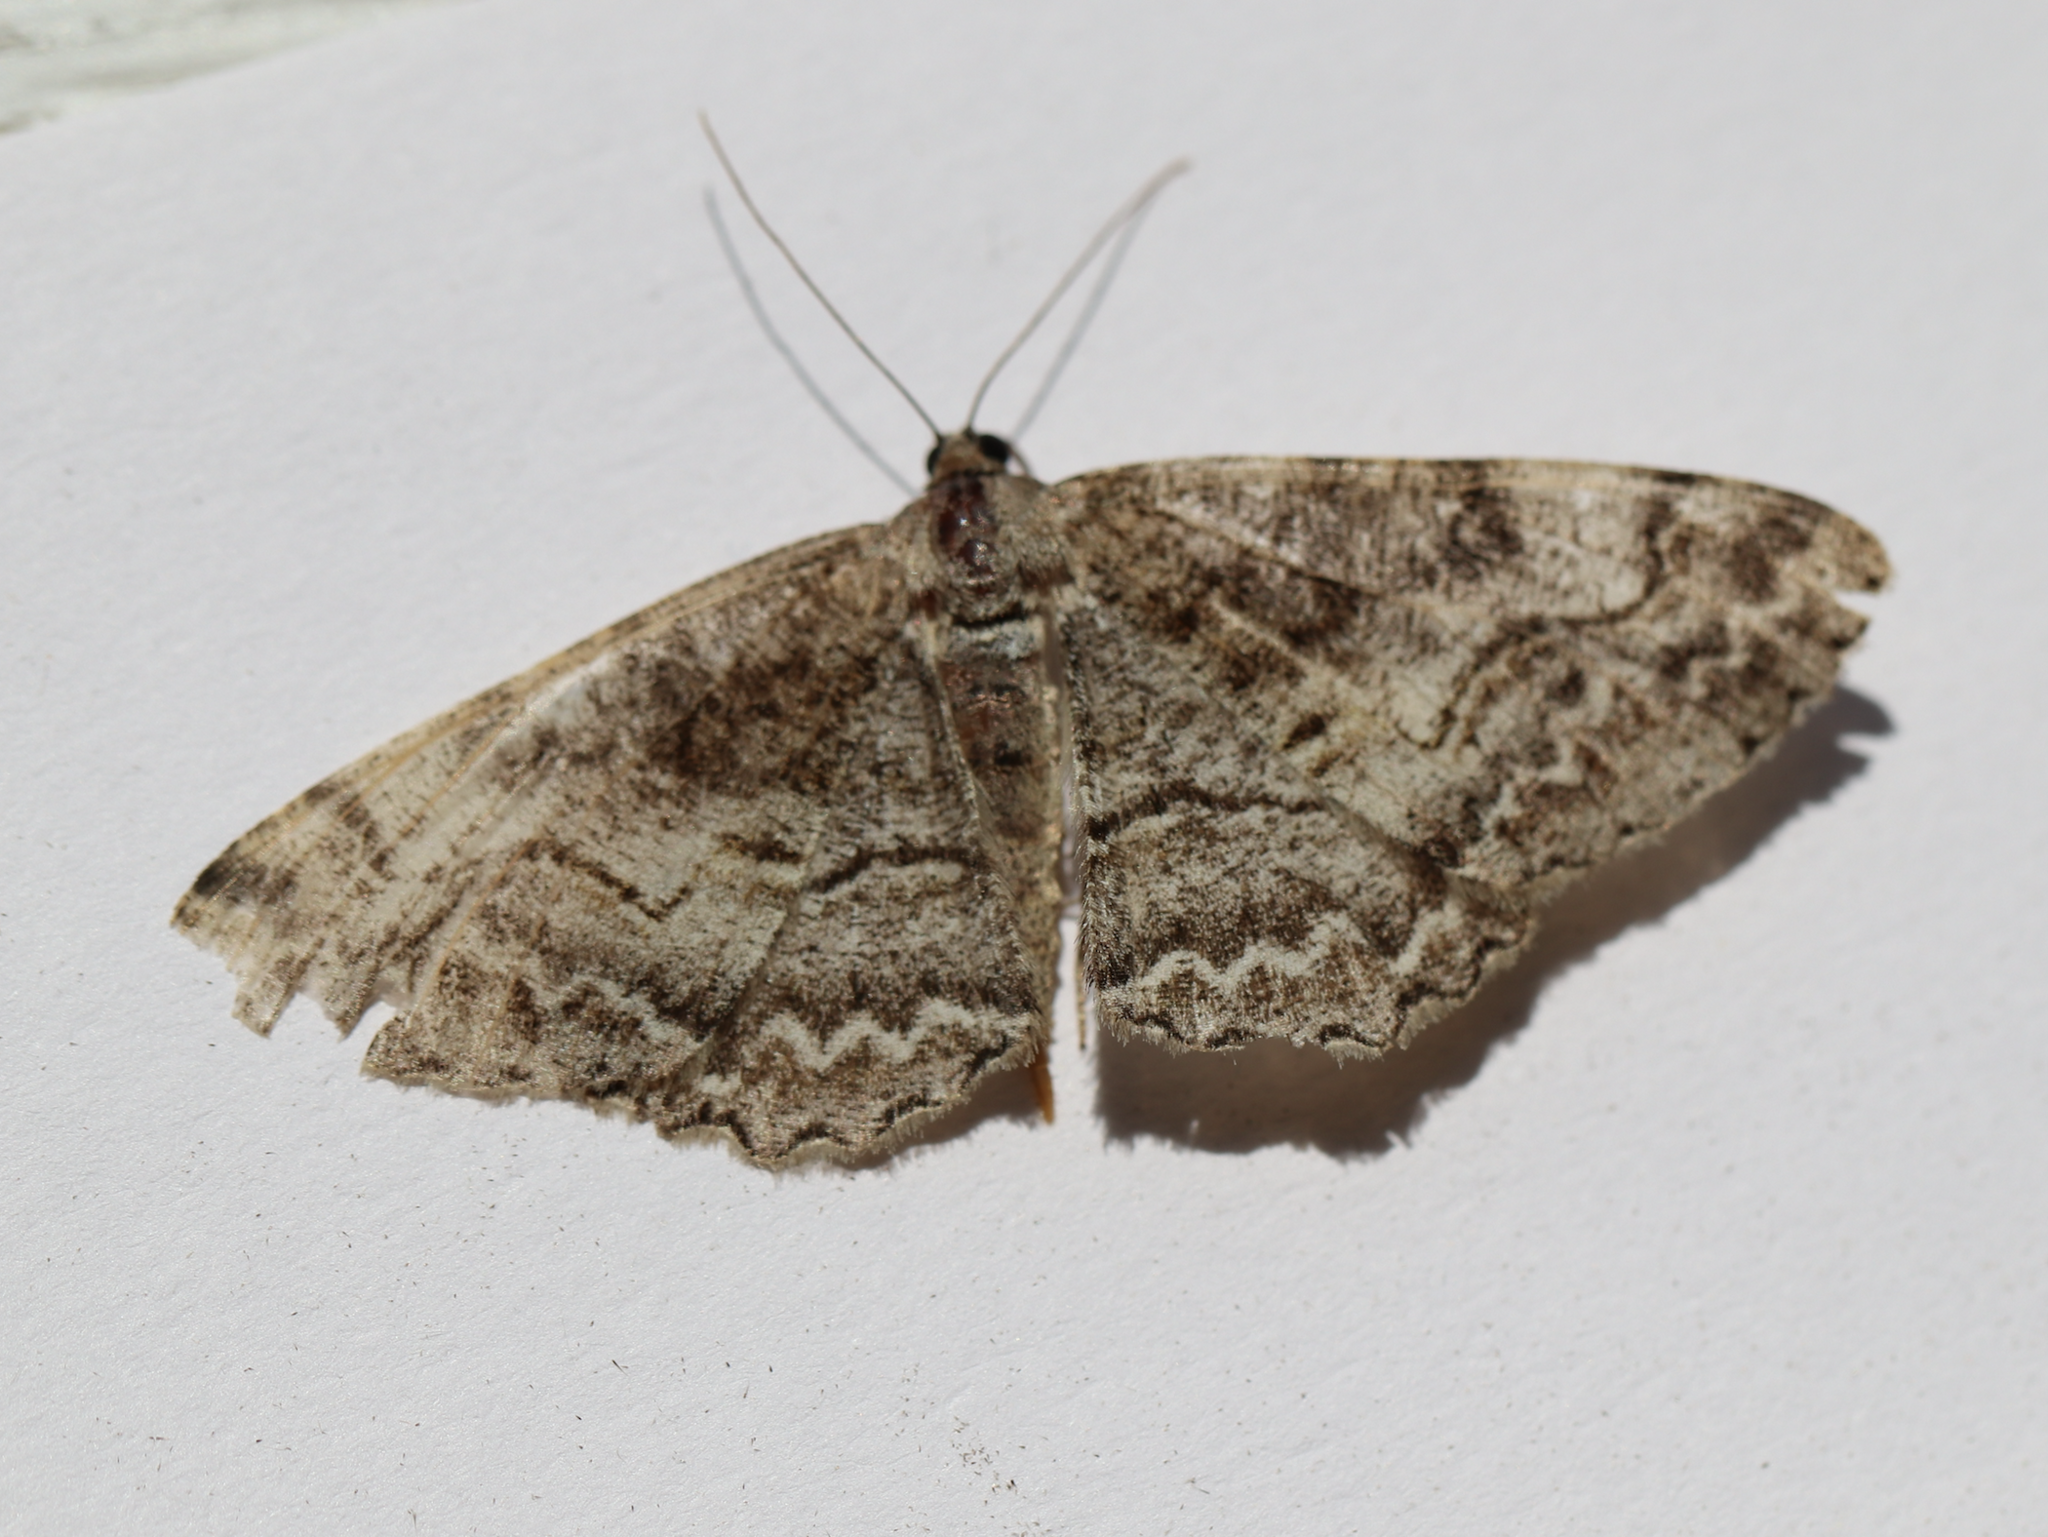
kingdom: Animalia
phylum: Arthropoda
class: Insecta
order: Lepidoptera
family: Geometridae
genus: Alcis
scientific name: Alcis repandata
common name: Mottled beauty
